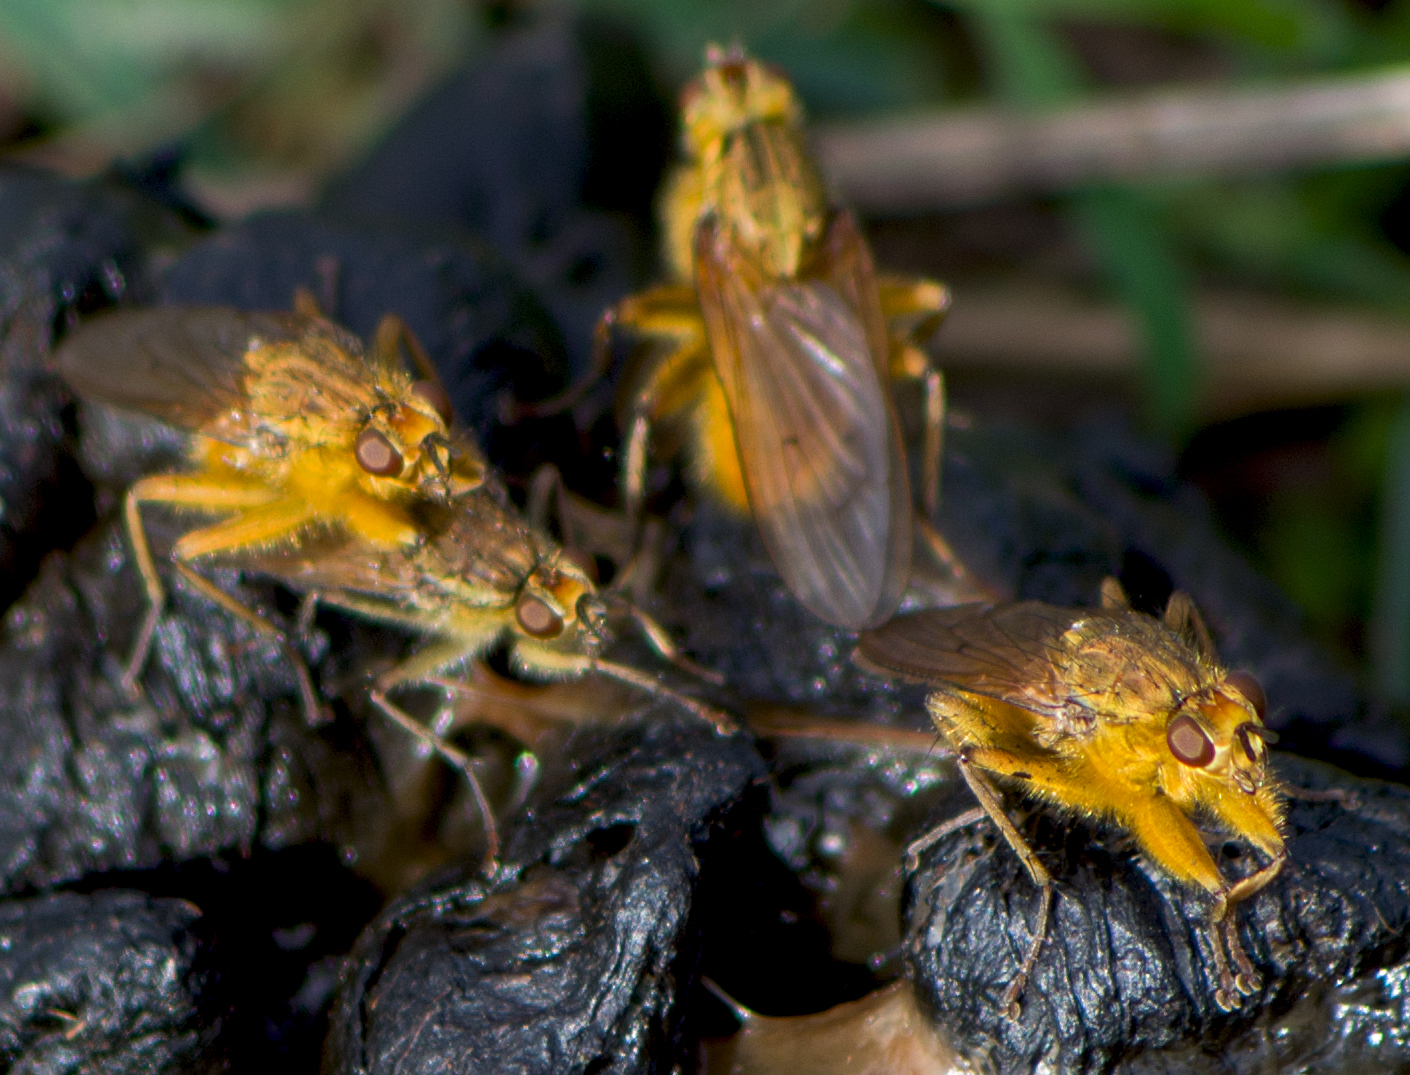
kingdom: Animalia
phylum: Arthropoda
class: Insecta
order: Diptera
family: Scathophagidae
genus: Scathophaga
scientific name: Scathophaga stercoraria
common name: Yellow dung fly
